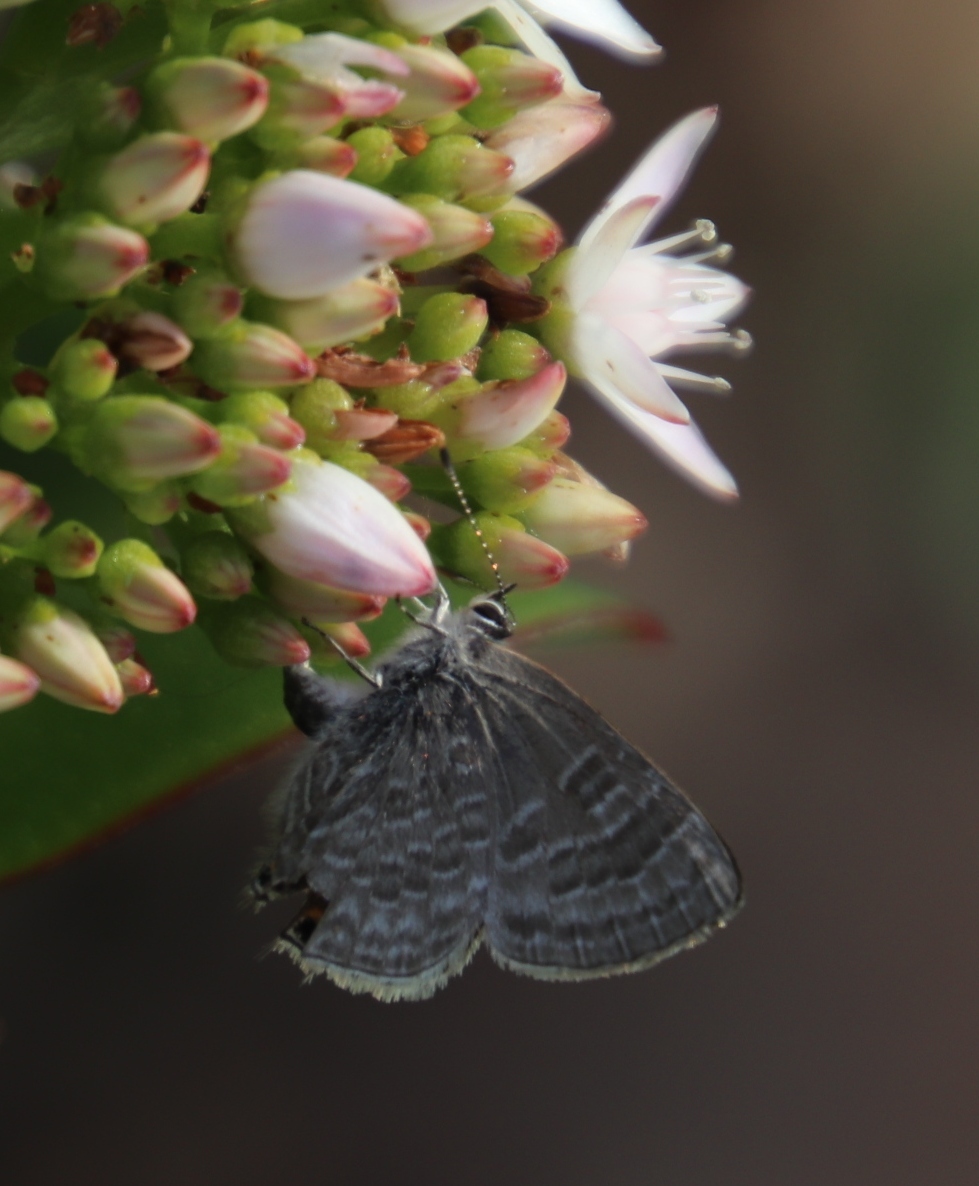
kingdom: Animalia
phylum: Arthropoda
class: Insecta
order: Lepidoptera
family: Lycaenidae
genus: Anthene
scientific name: Anthene definita
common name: Common ciliate blue
